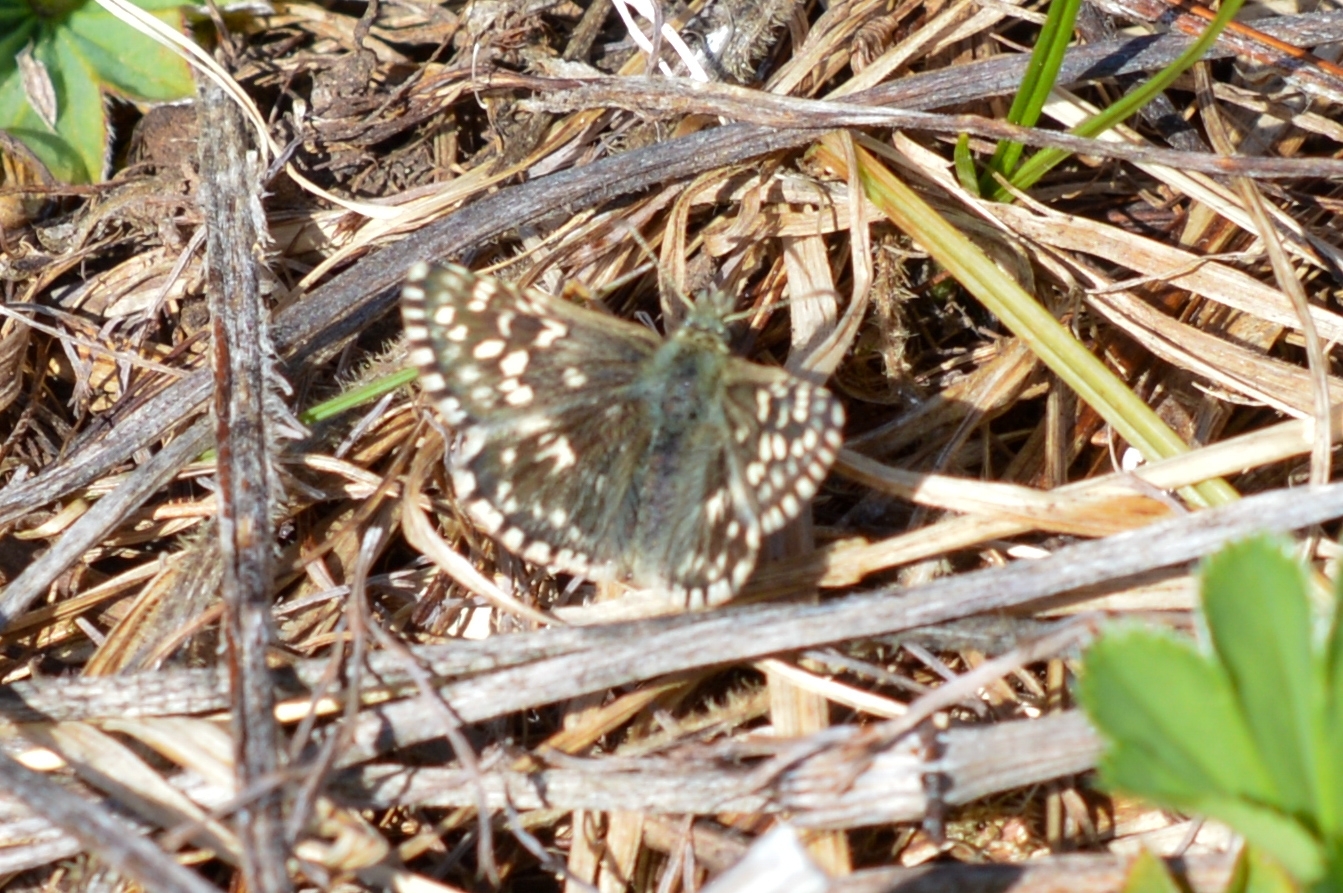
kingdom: Animalia
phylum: Arthropoda
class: Insecta
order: Lepidoptera
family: Hesperiidae
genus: Pyrgus
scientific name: Pyrgus malvae
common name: Grizzled skipper
